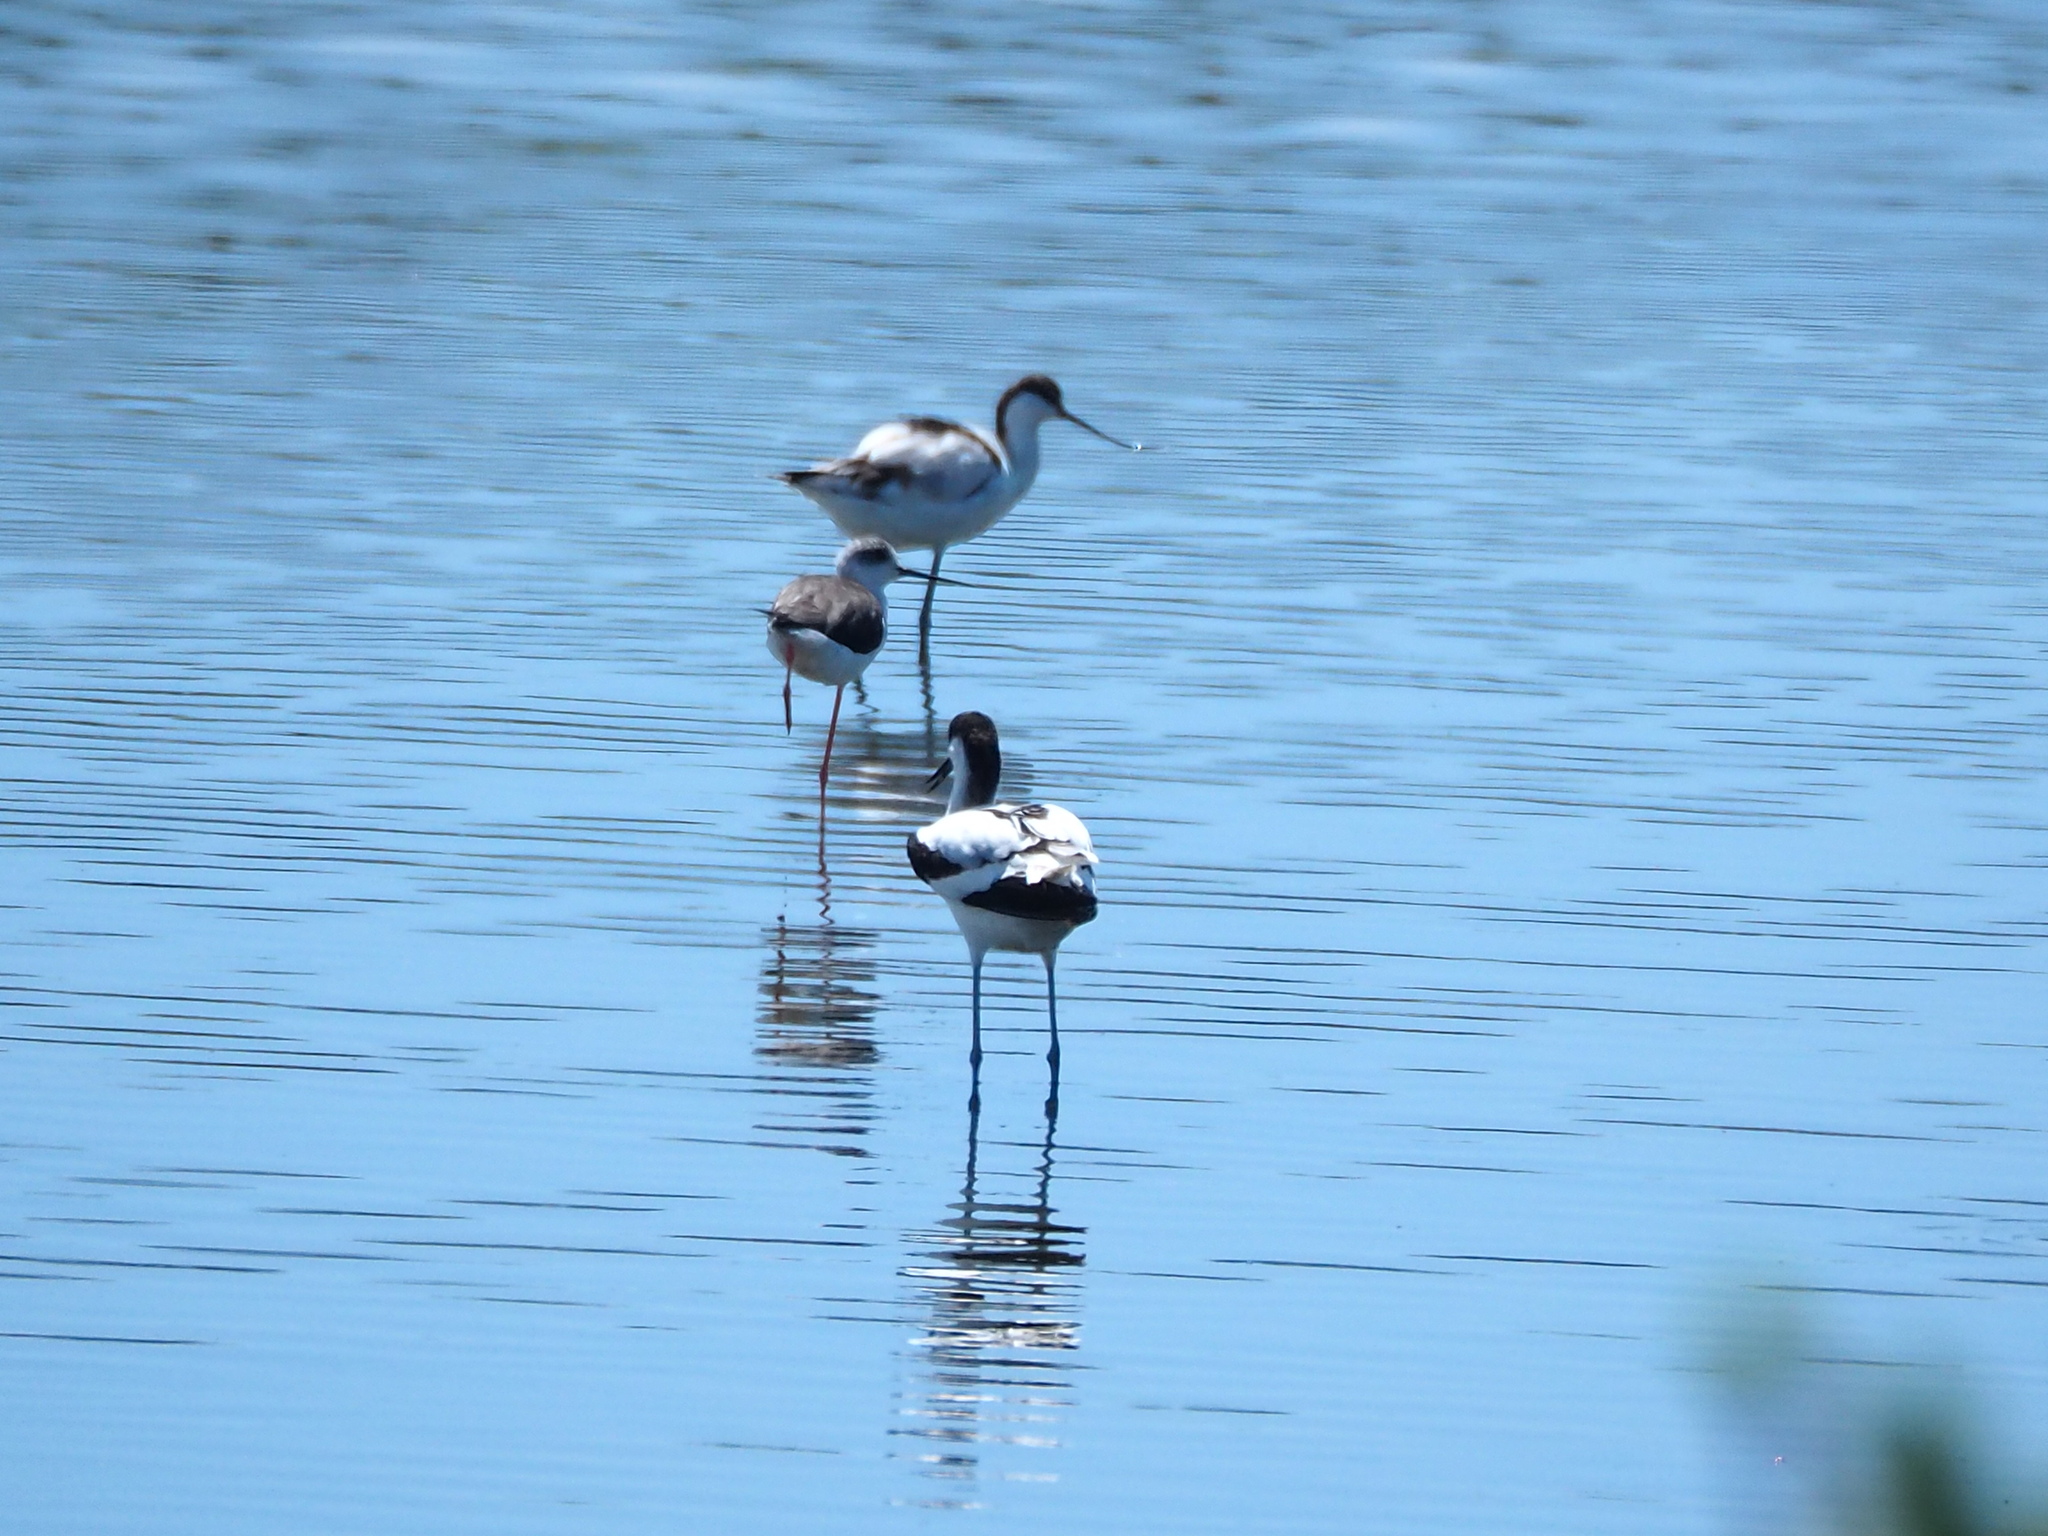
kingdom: Animalia
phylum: Chordata
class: Aves
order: Charadriiformes
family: Recurvirostridae
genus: Recurvirostra
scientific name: Recurvirostra avosetta
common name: Pied avocet
